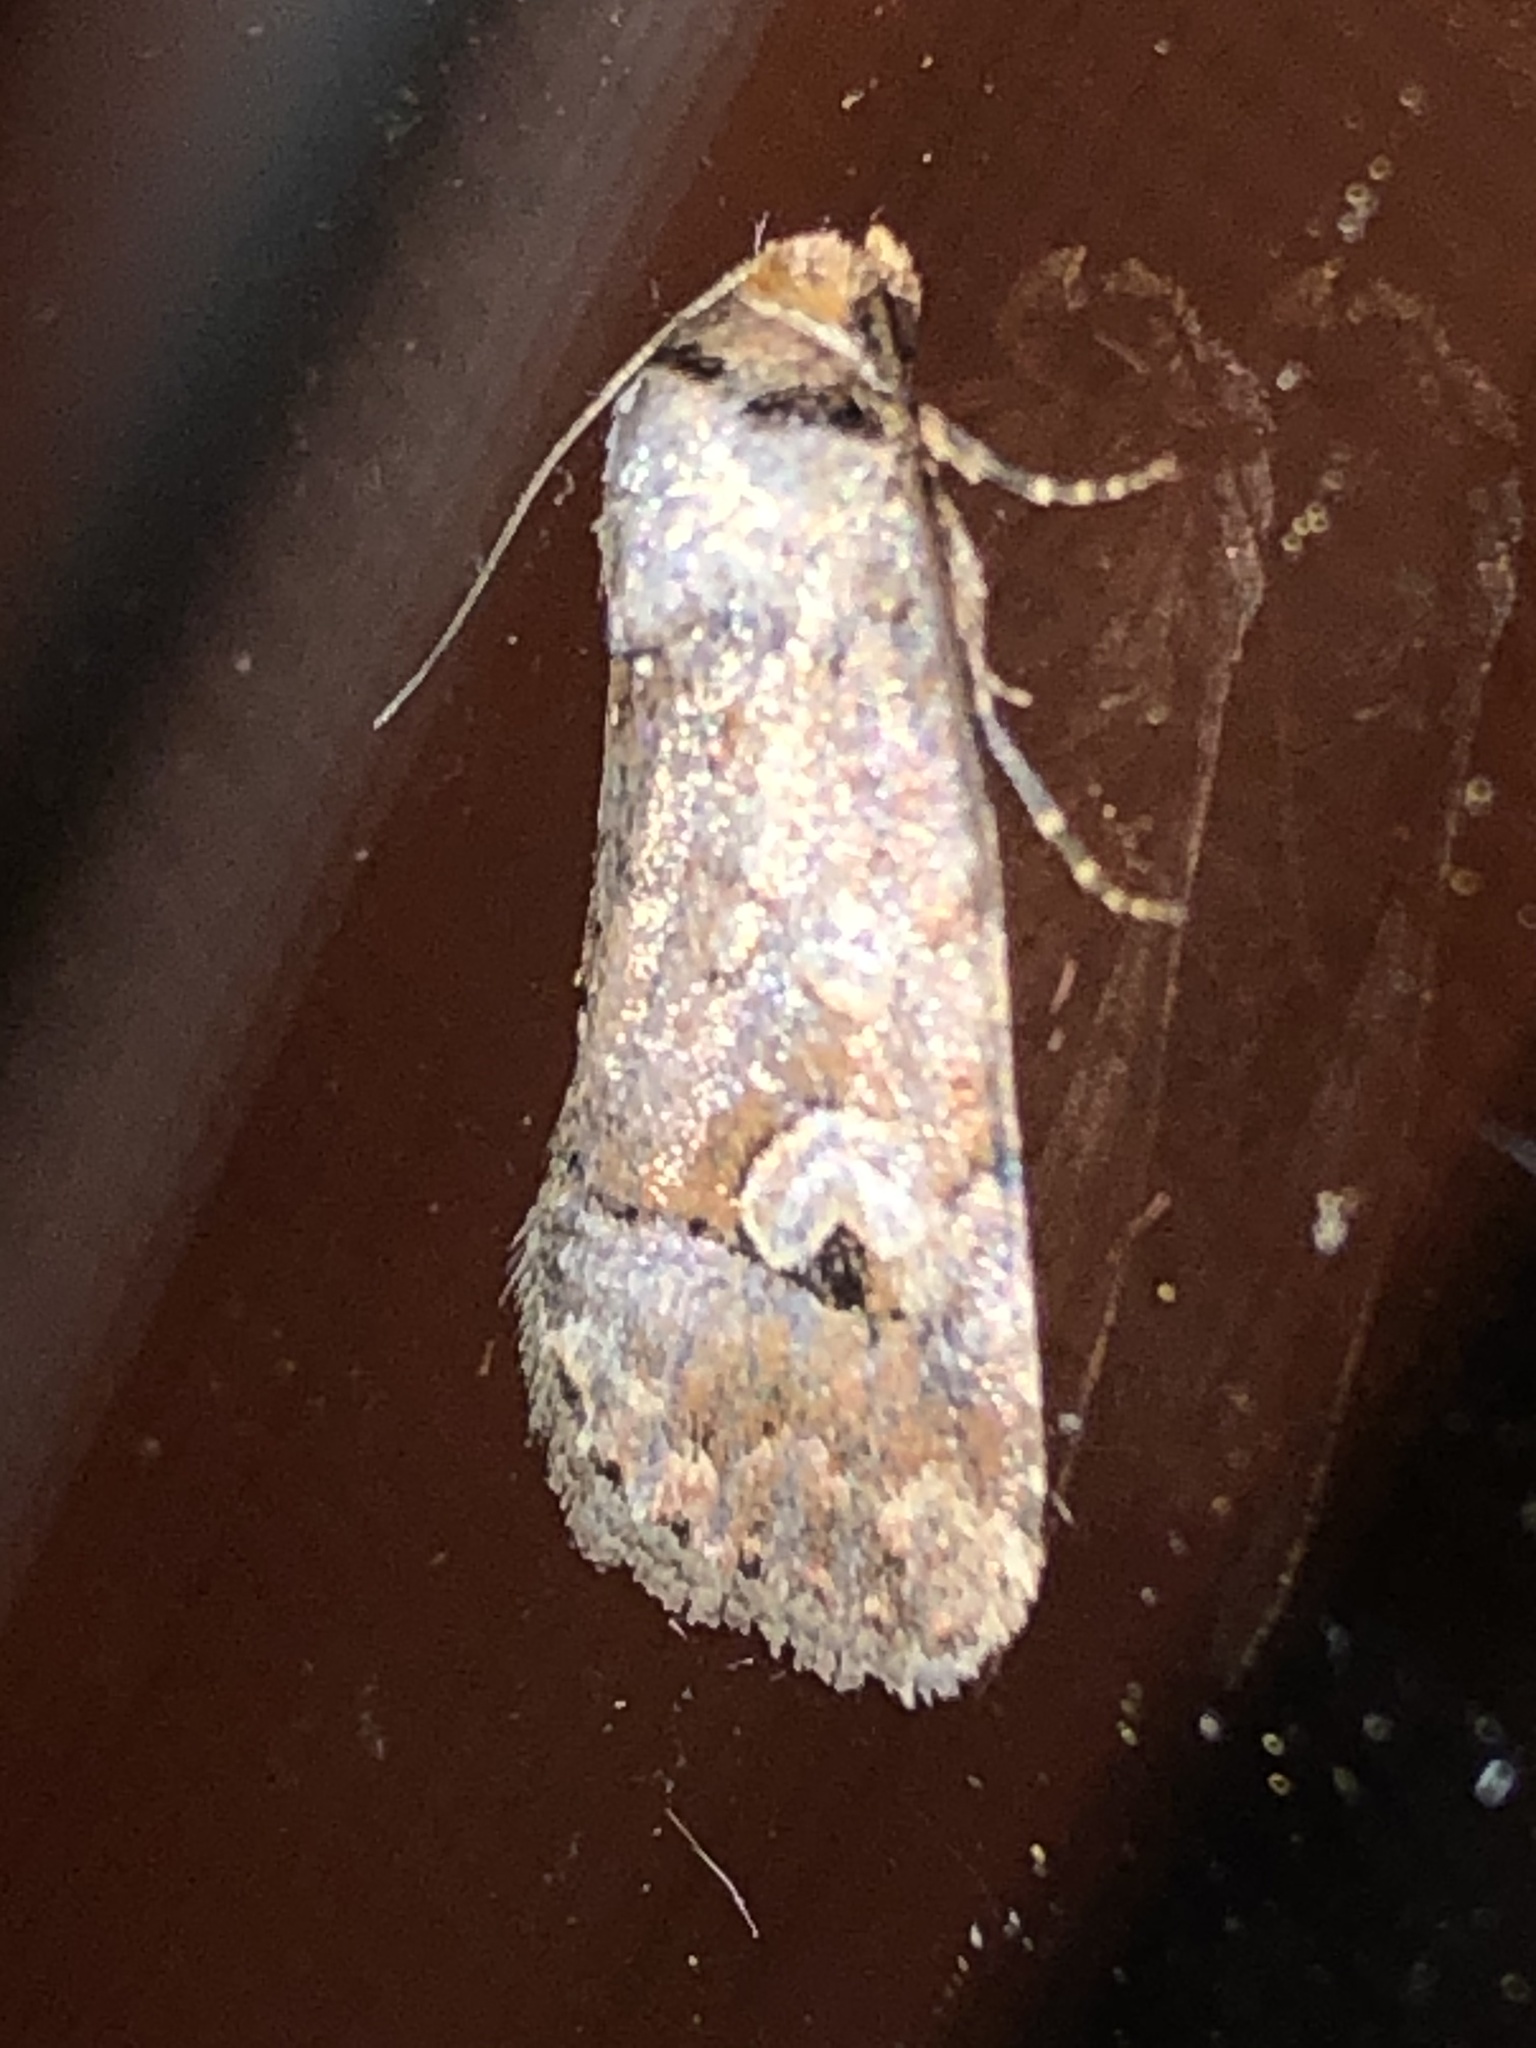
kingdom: Animalia
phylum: Arthropoda
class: Insecta
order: Lepidoptera
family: Noctuidae
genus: Elaphria
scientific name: Elaphria alapallida
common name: Pale-winged midget
